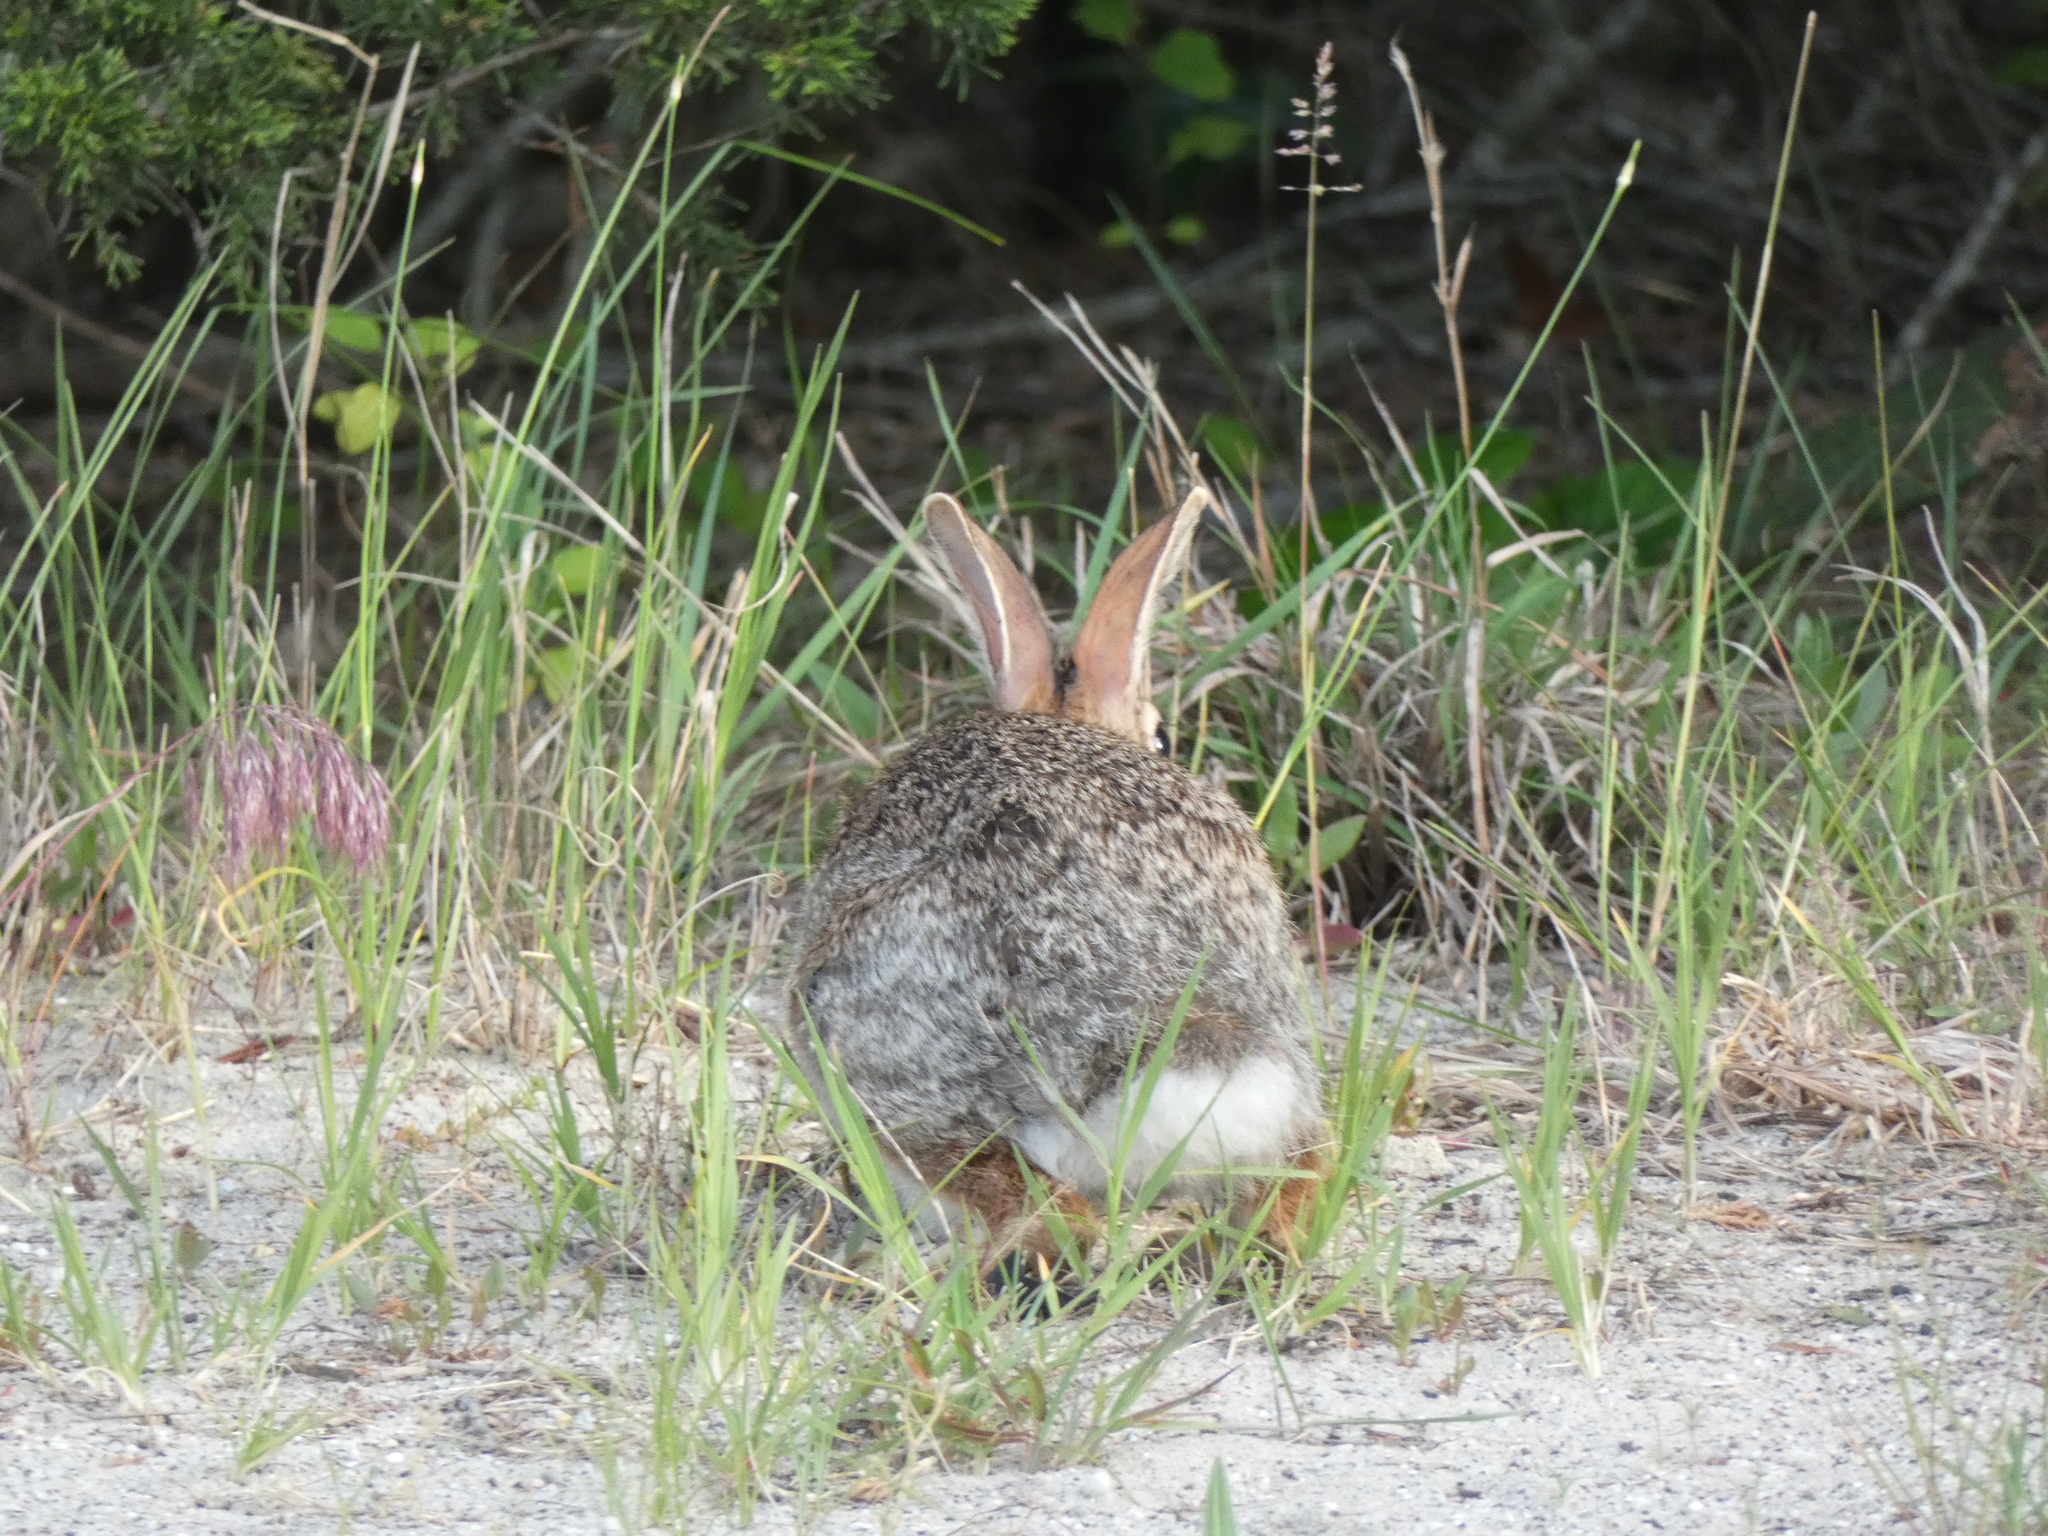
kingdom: Animalia
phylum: Chordata
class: Mammalia
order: Lagomorpha
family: Leporidae
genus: Sylvilagus
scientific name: Sylvilagus floridanus
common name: Eastern cottontail
